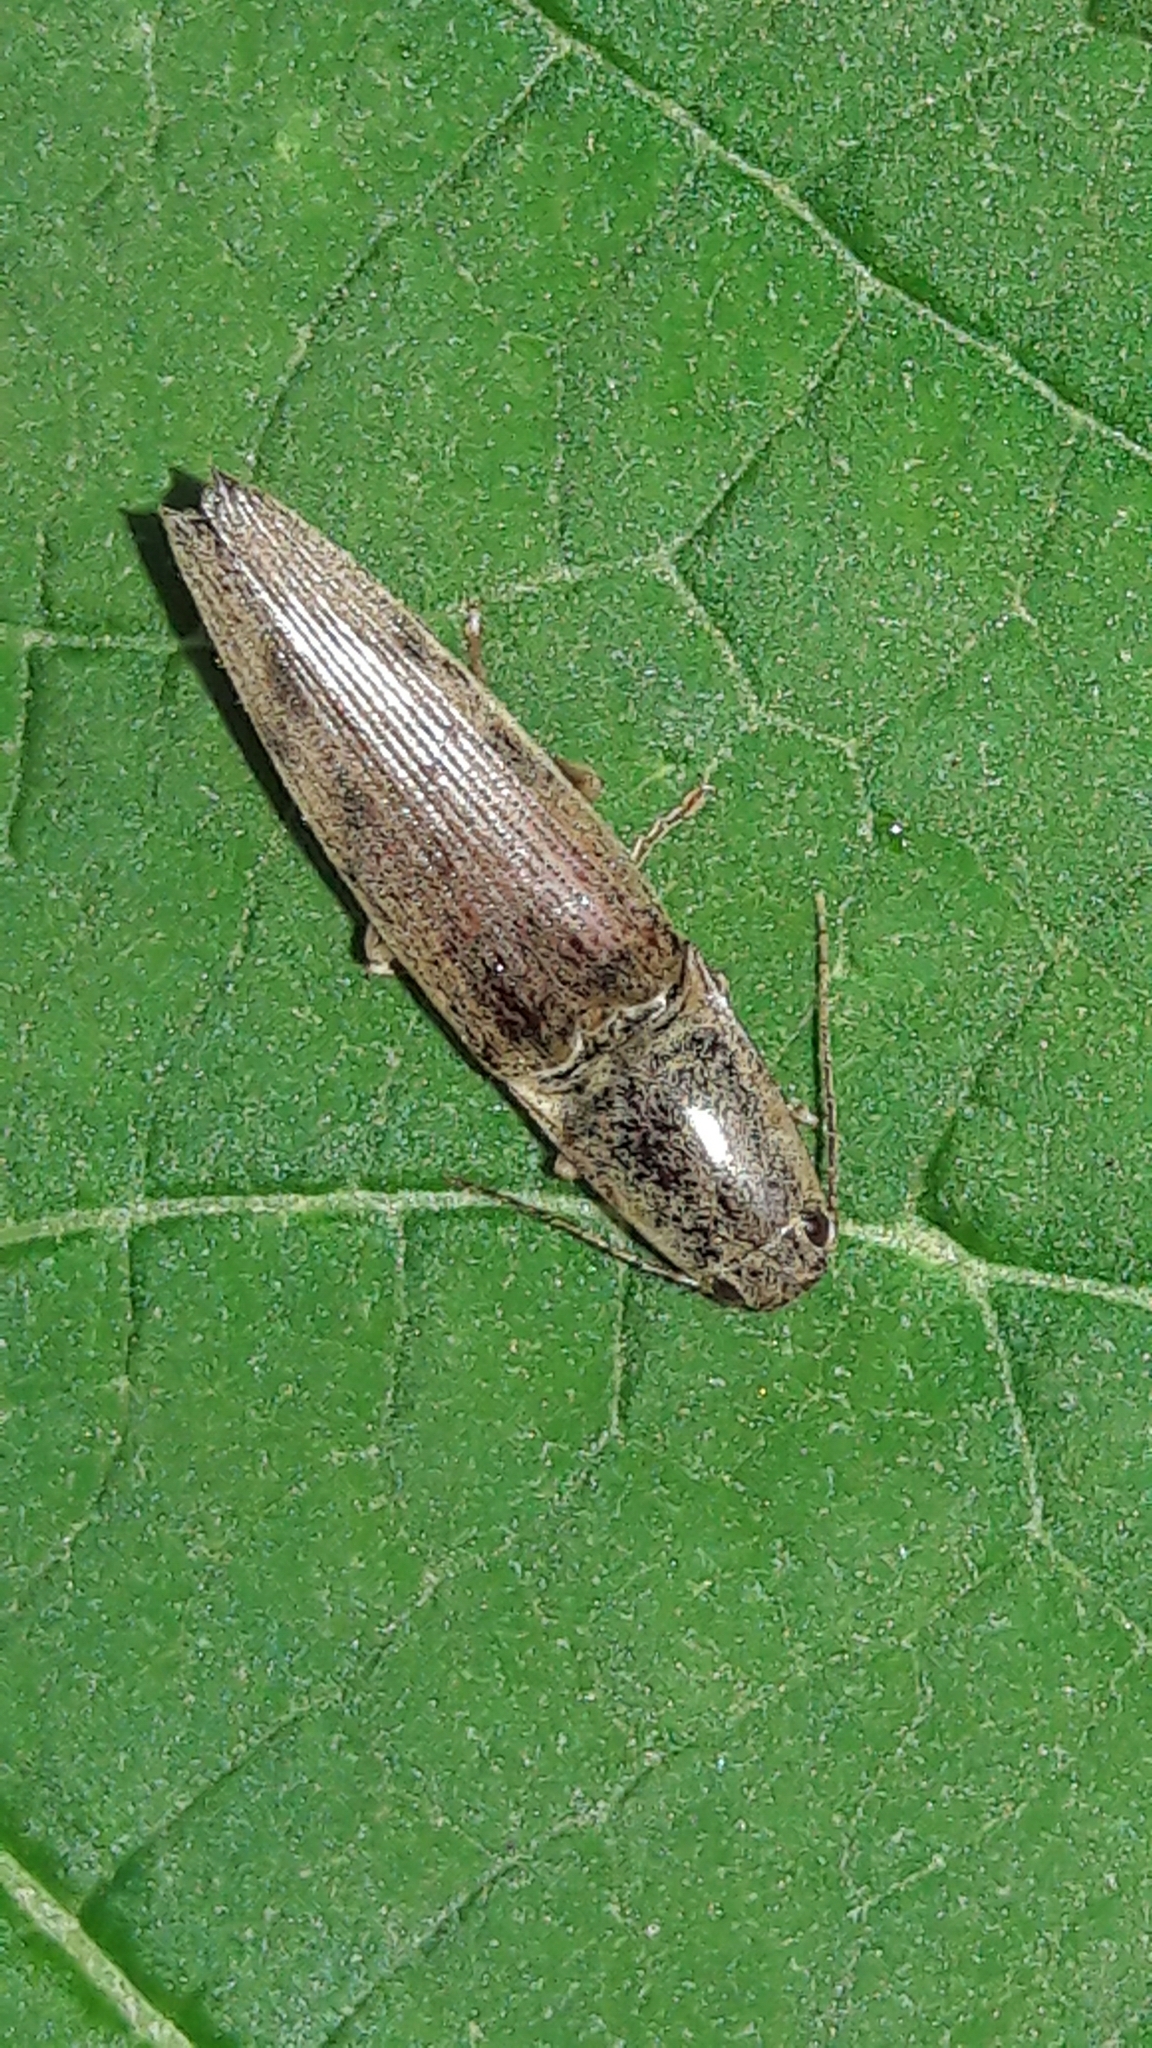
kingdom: Animalia
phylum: Arthropoda
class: Insecta
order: Coleoptera
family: Elateridae
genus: Monocrepidius
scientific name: Monocrepidius
